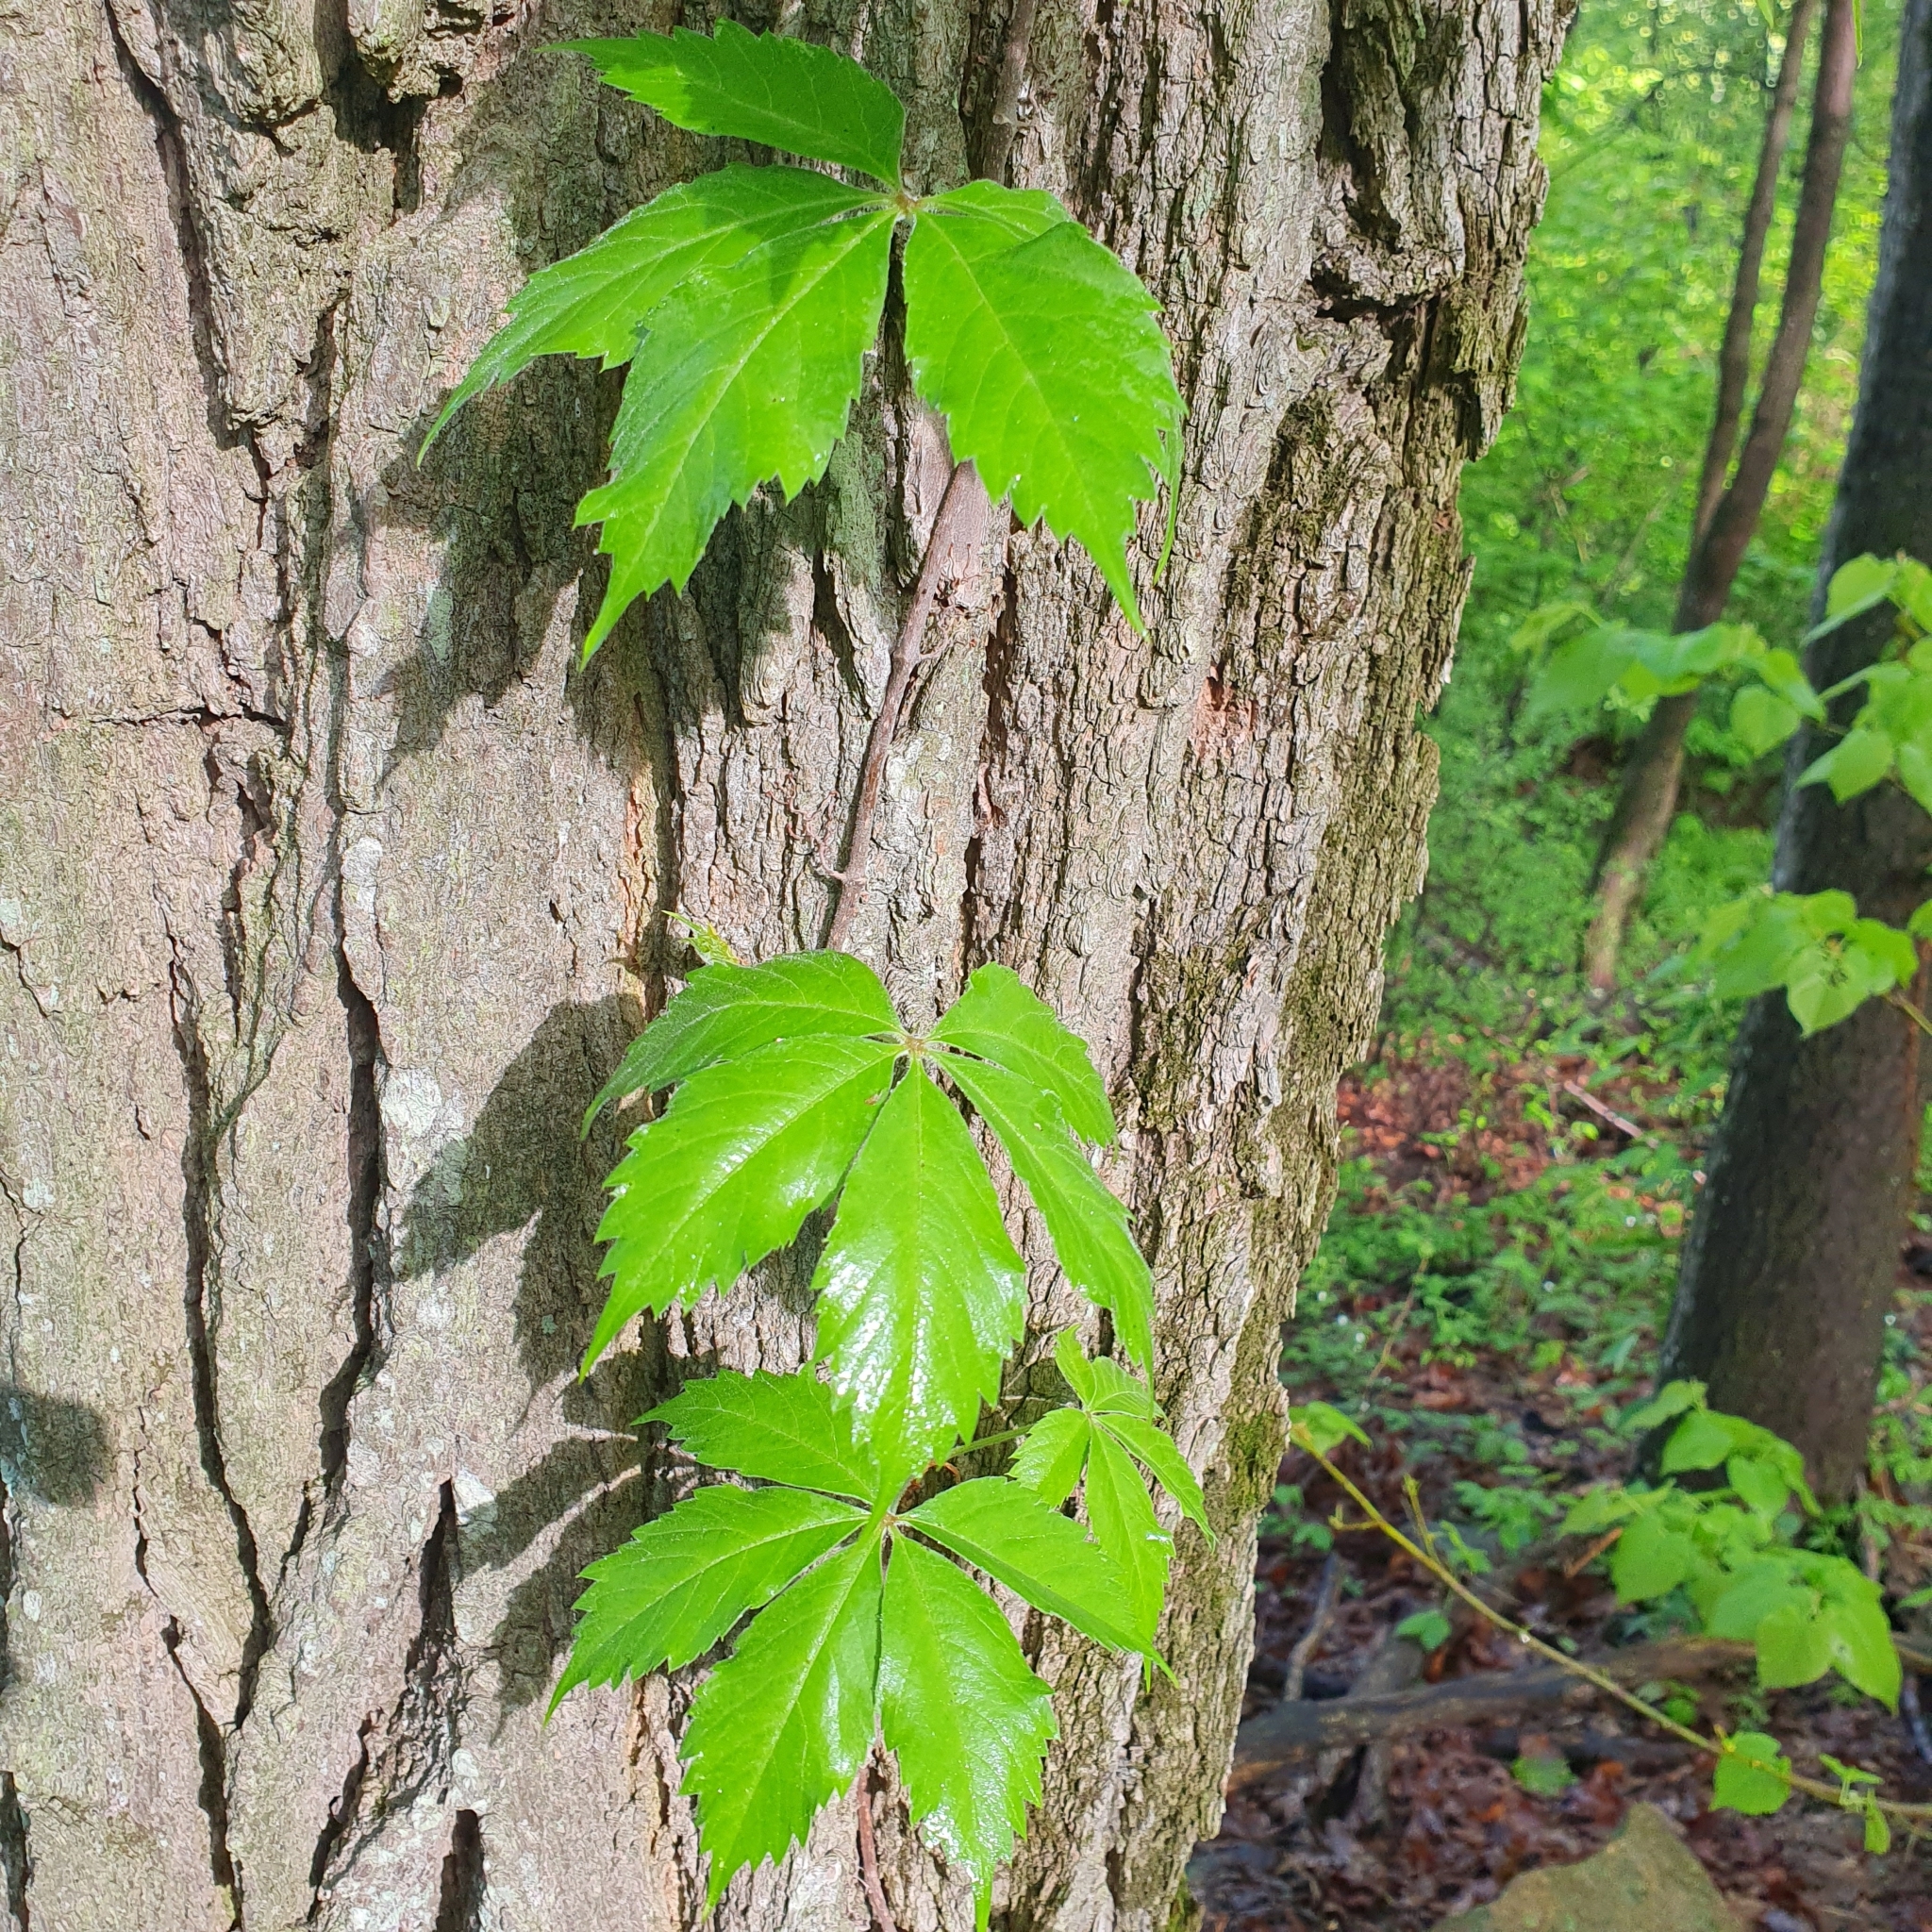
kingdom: Plantae
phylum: Tracheophyta
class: Magnoliopsida
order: Vitales
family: Vitaceae
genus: Parthenocissus
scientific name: Parthenocissus quinquefolia
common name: Virginia-creeper
